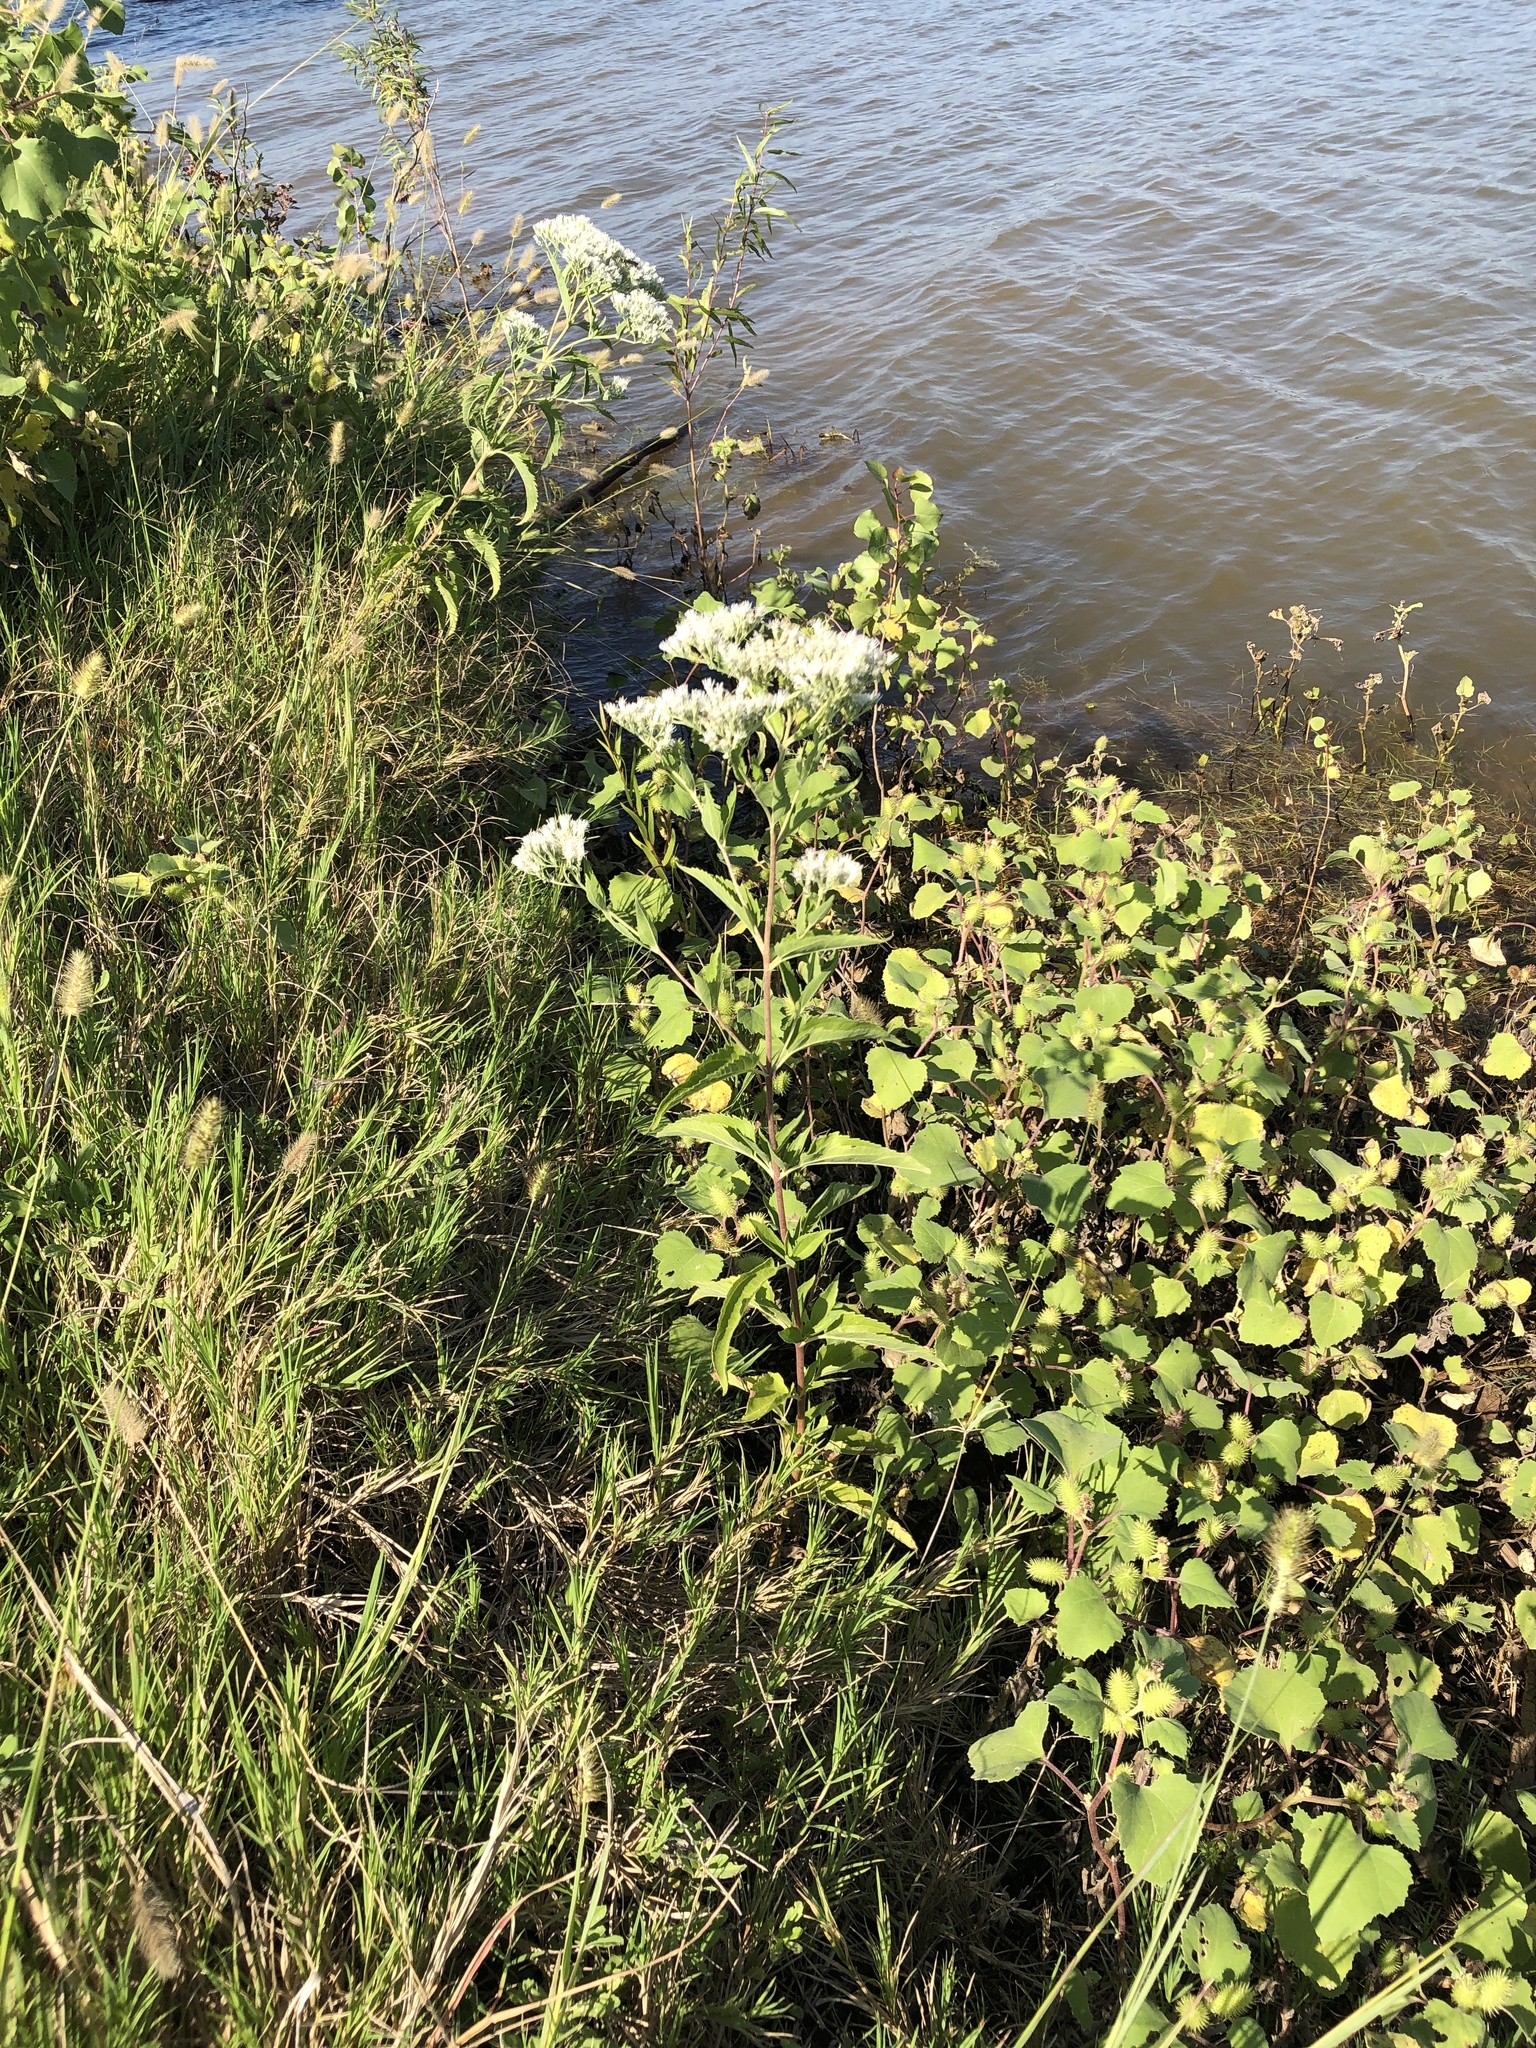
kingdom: Plantae
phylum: Tracheophyta
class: Magnoliopsida
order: Asterales
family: Asteraceae
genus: Eupatorium
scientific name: Eupatorium serotinum
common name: Late boneset
